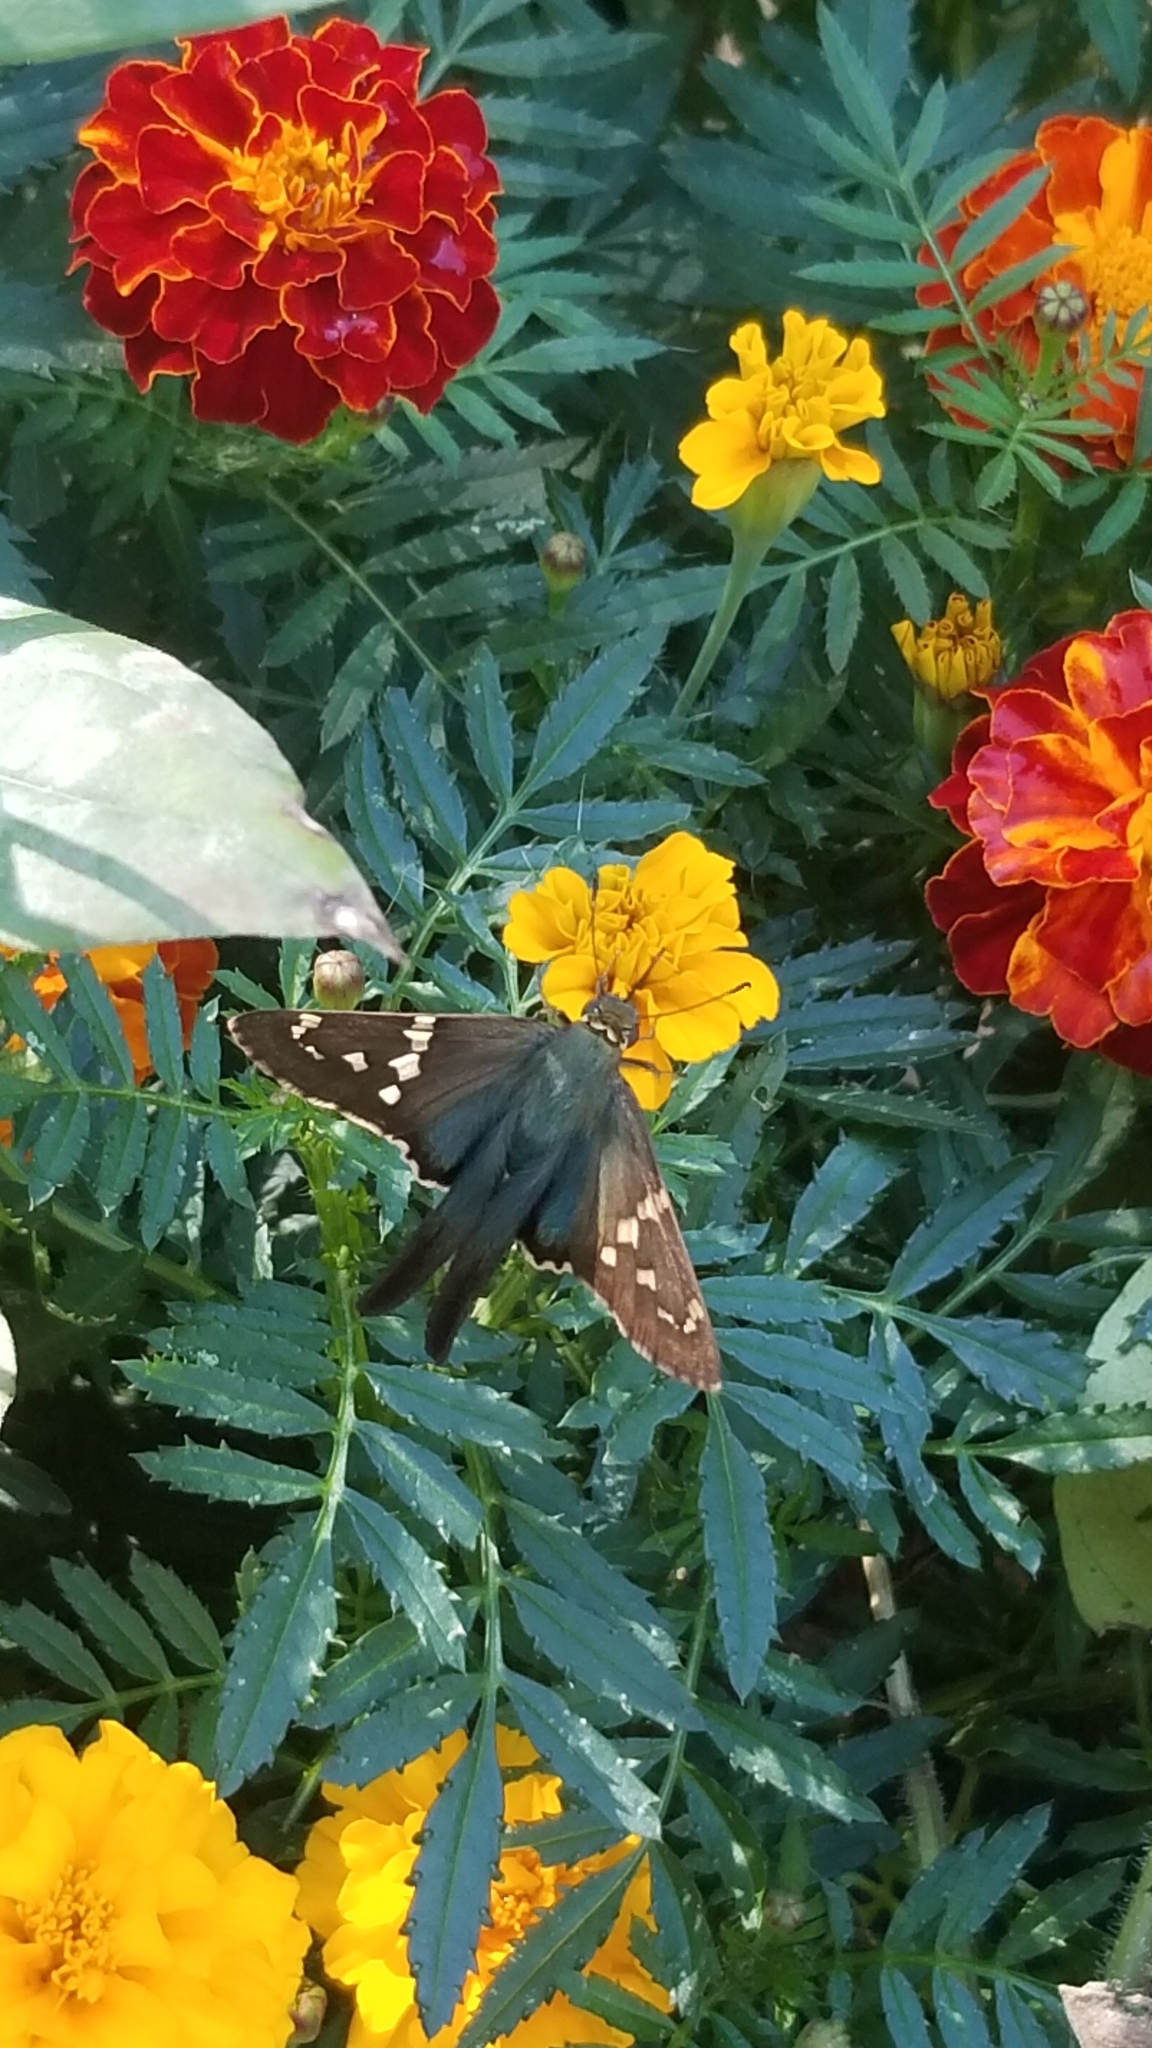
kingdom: Animalia
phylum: Arthropoda
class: Insecta
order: Lepidoptera
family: Hesperiidae
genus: Urbanus
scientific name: Urbanus proteus
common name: Long-tailed skipper
